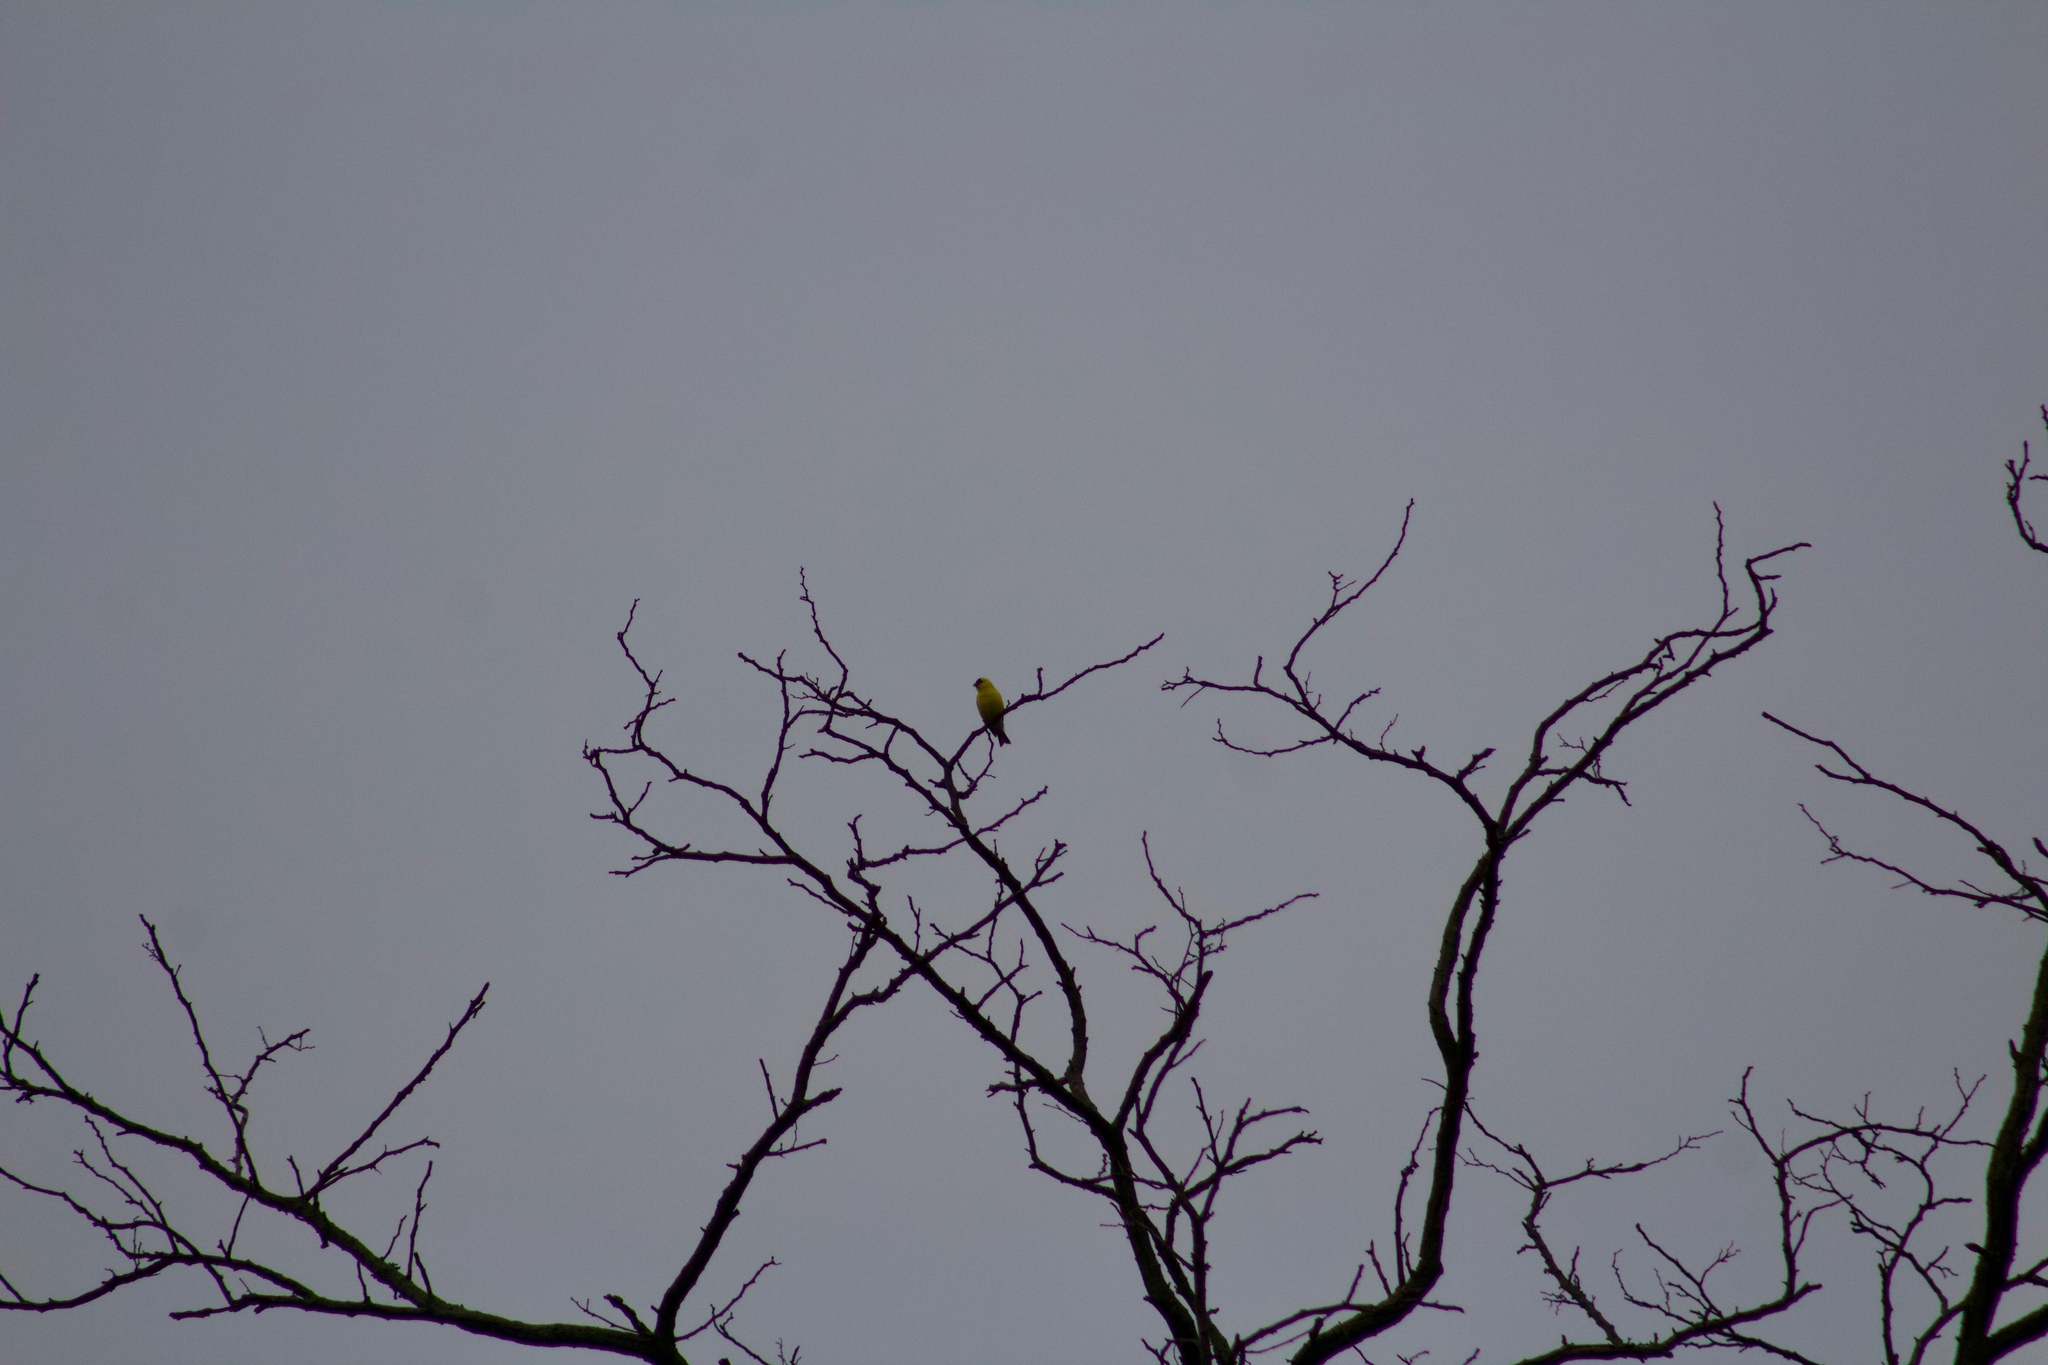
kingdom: Animalia
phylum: Chordata
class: Aves
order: Passeriformes
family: Fringillidae
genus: Spinus
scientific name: Spinus tristis
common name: American goldfinch
